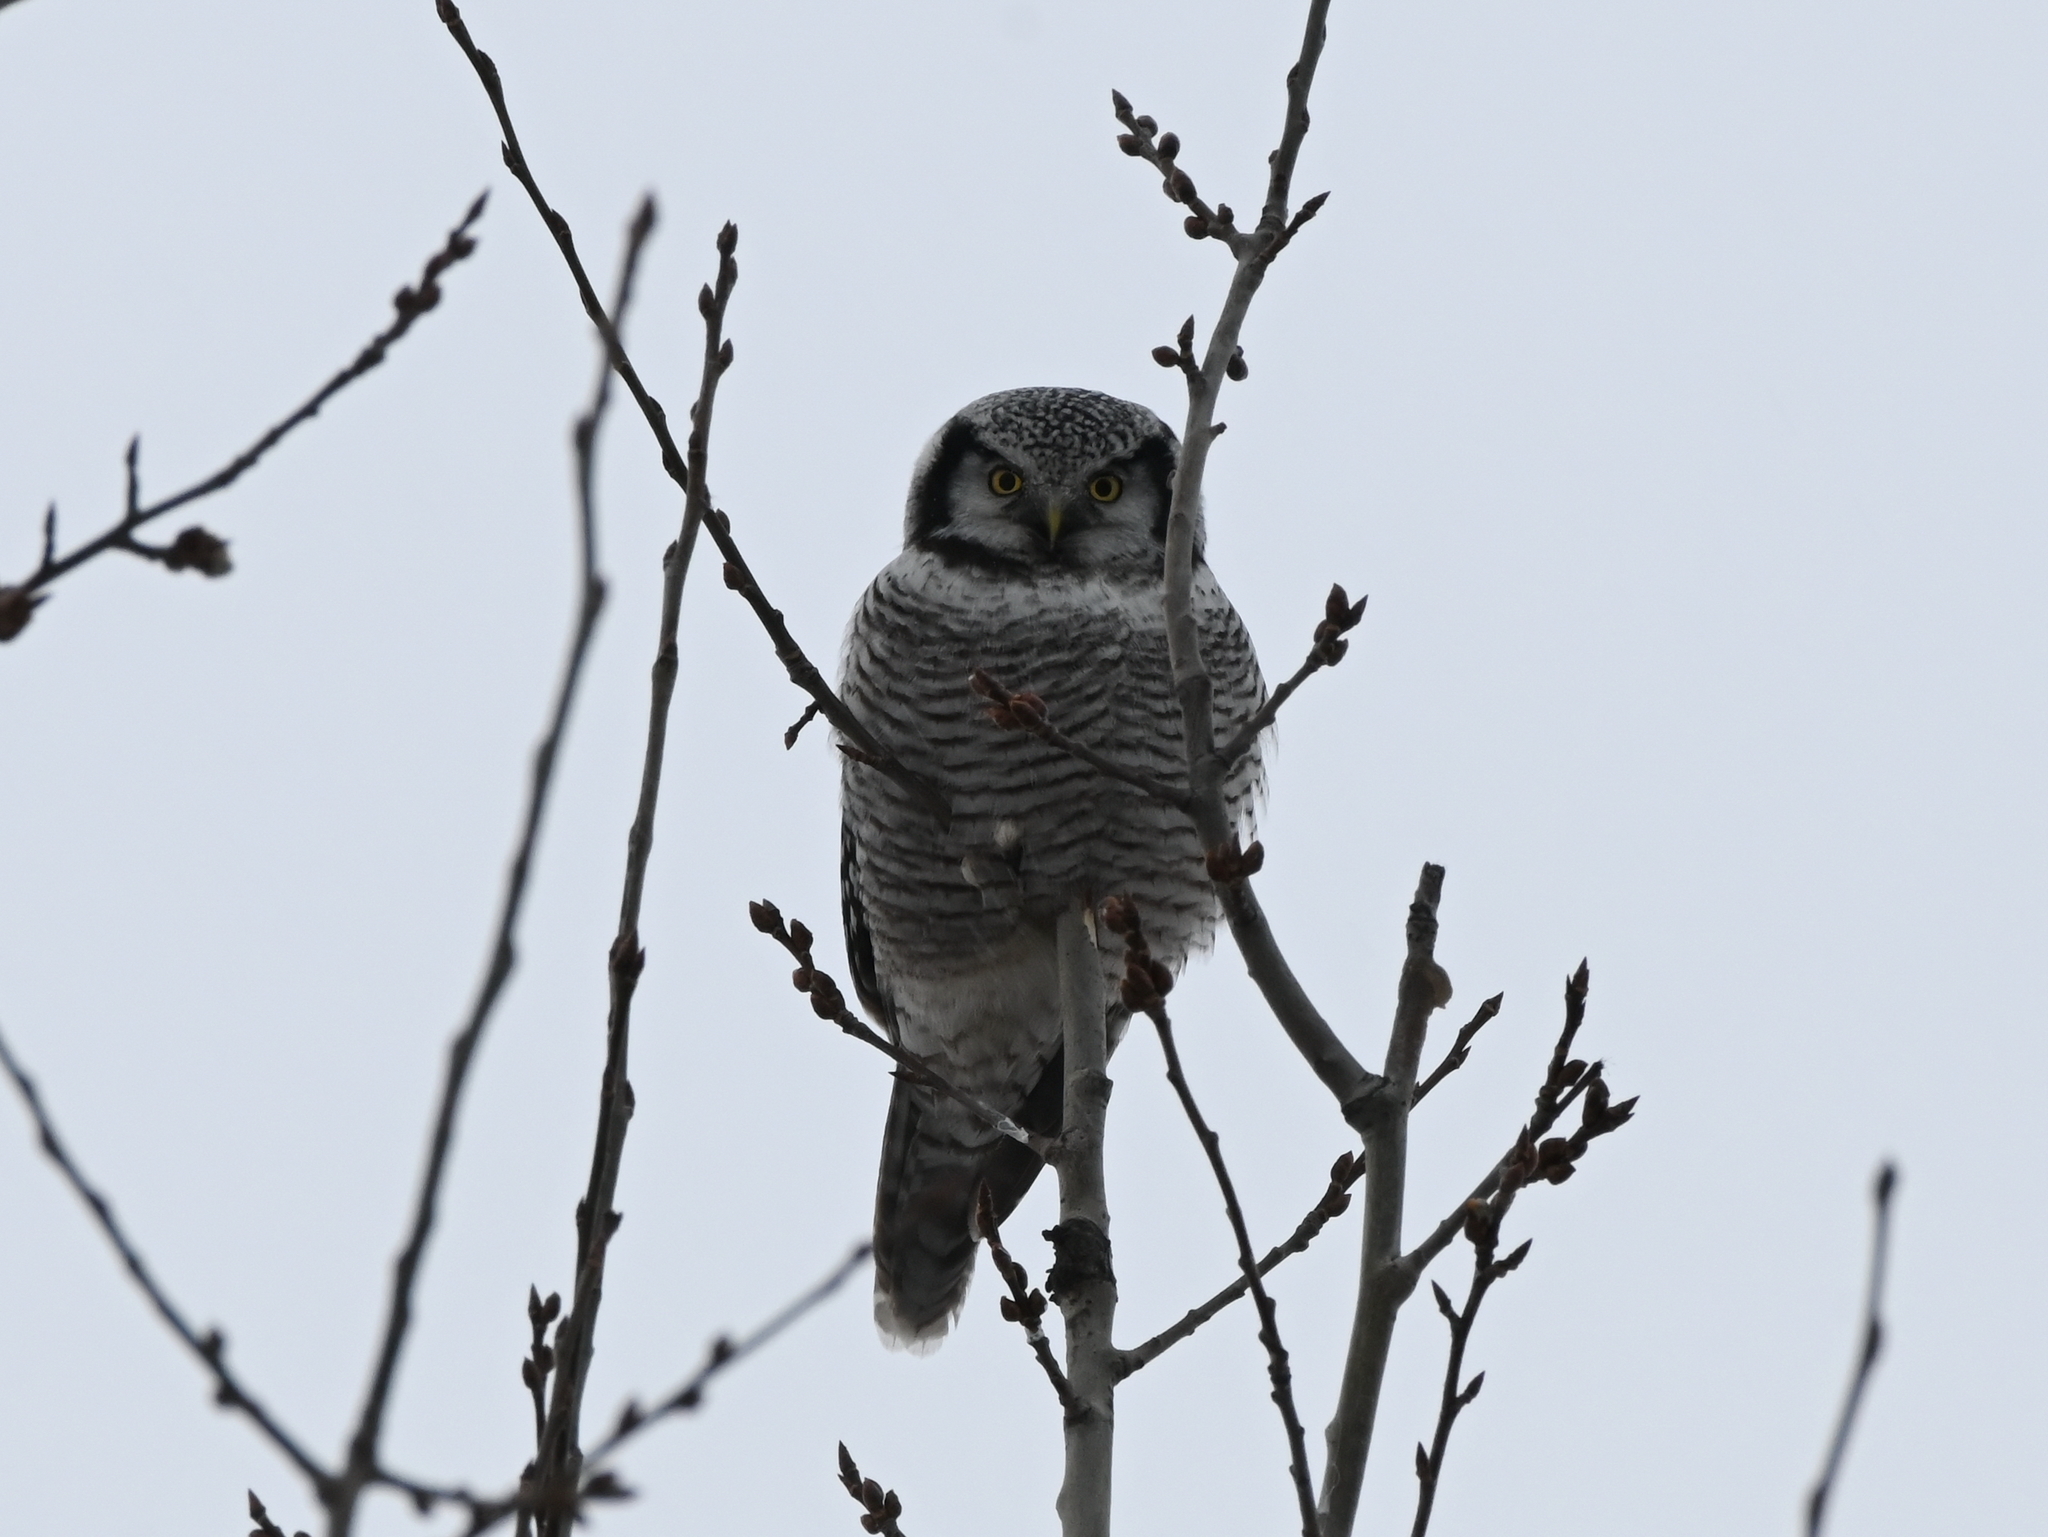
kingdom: Animalia
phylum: Chordata
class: Aves
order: Strigiformes
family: Strigidae
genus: Surnia
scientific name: Surnia ulula
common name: Northern hawk-owl
